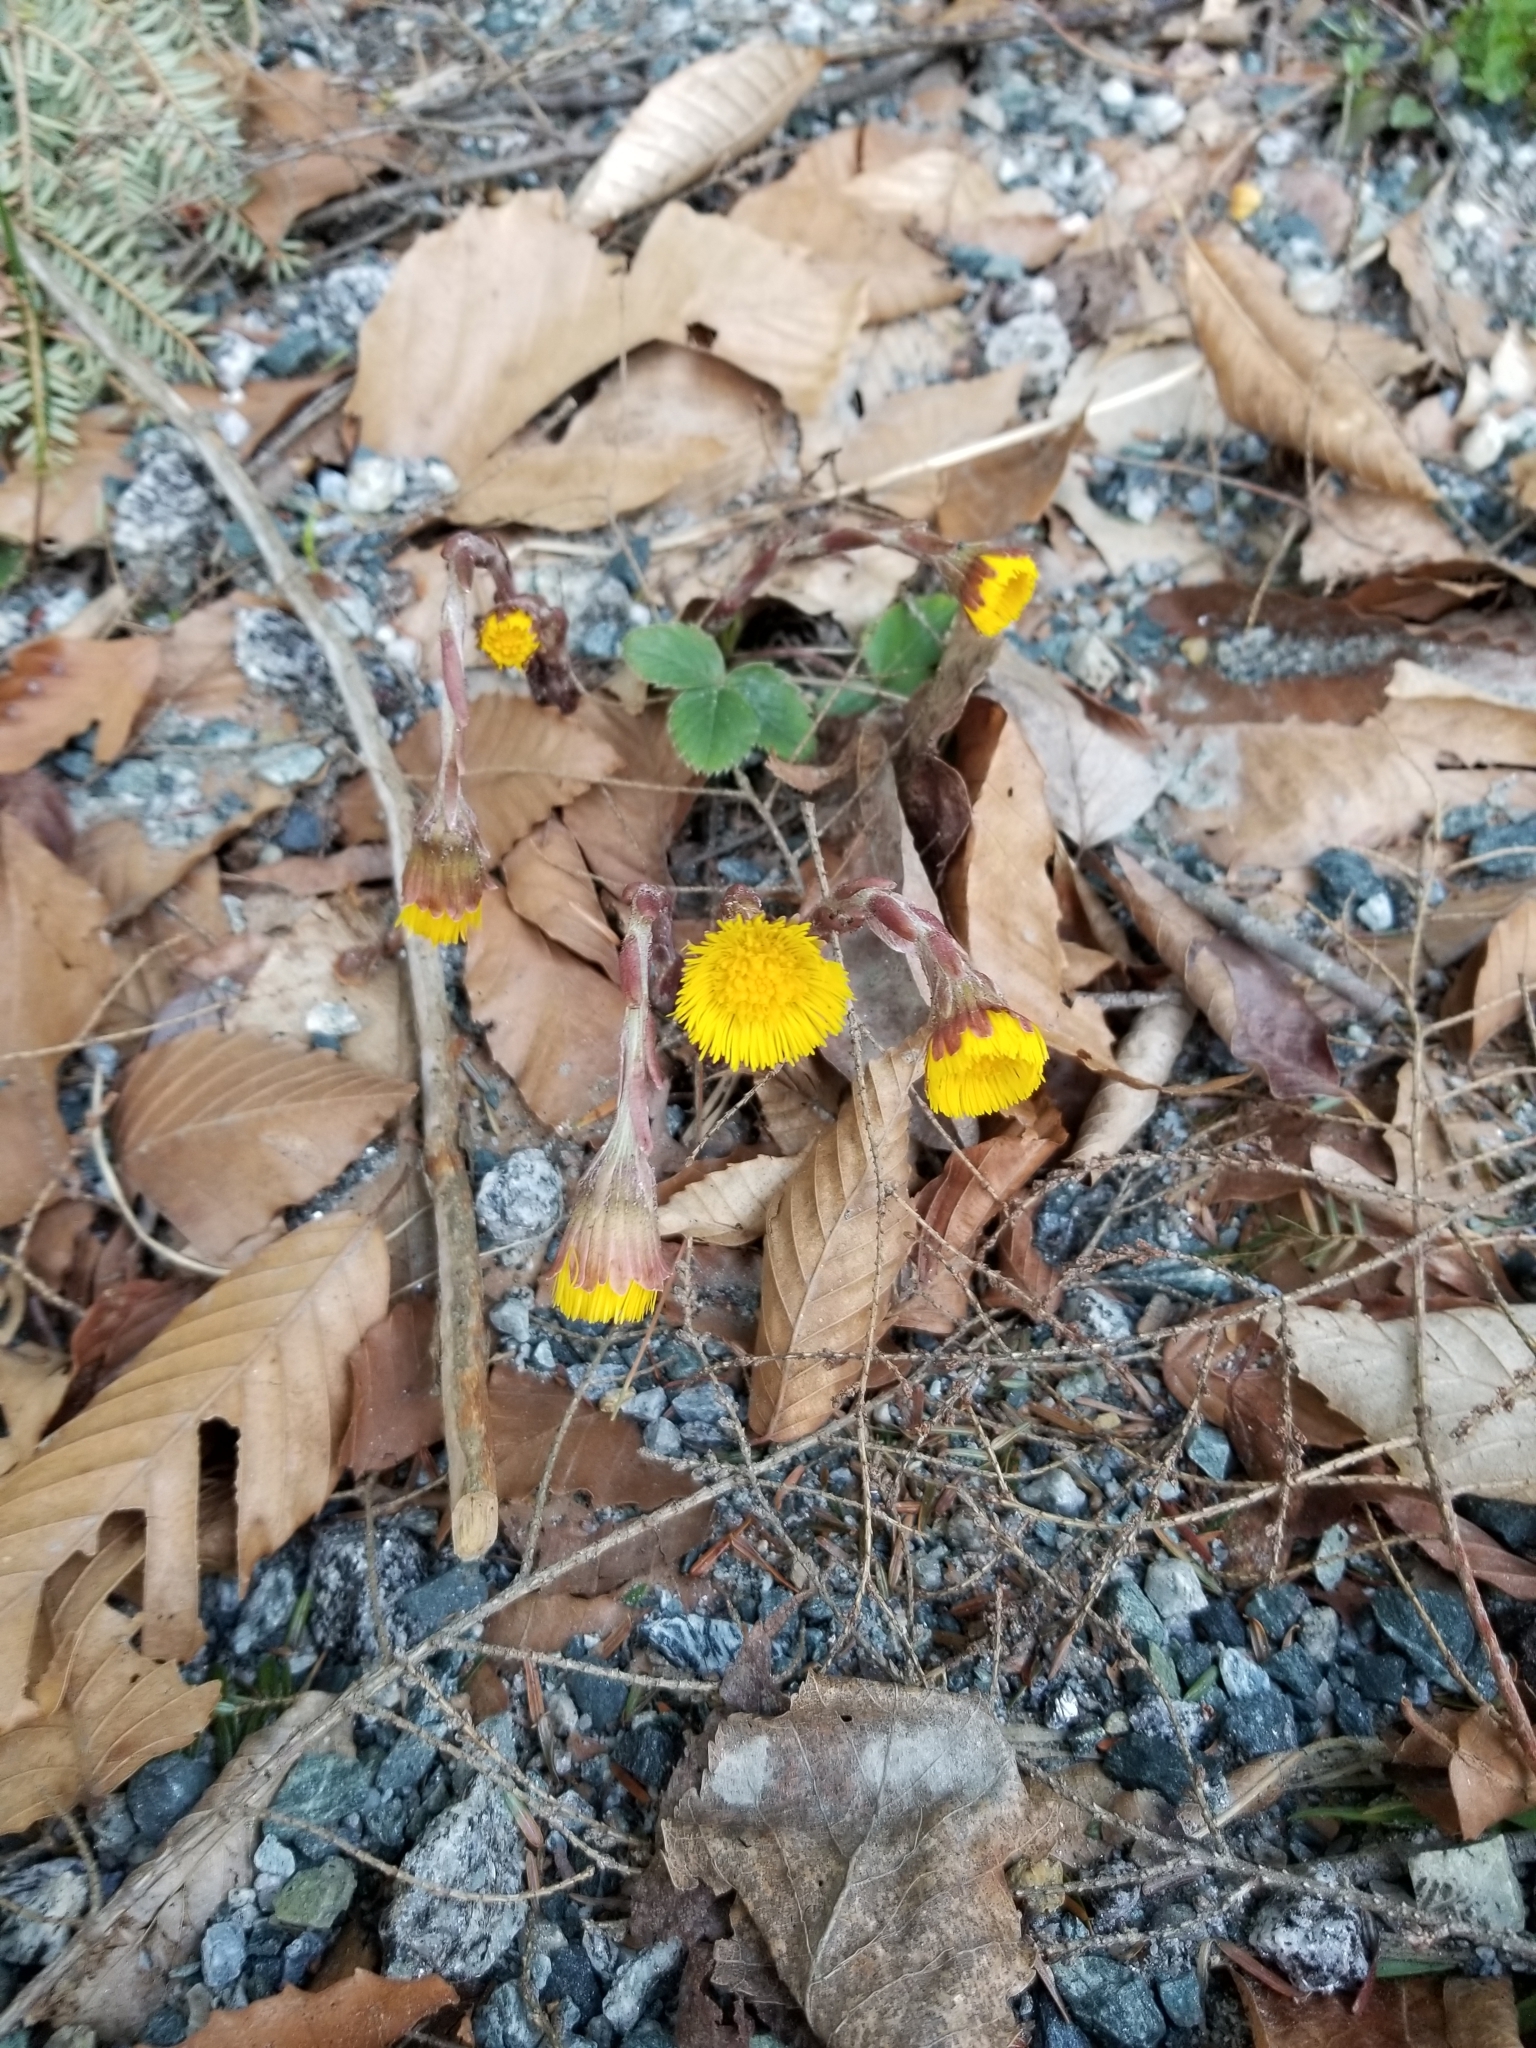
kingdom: Plantae
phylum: Tracheophyta
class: Magnoliopsida
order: Asterales
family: Asteraceae
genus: Tussilago
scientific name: Tussilago farfara
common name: Coltsfoot
